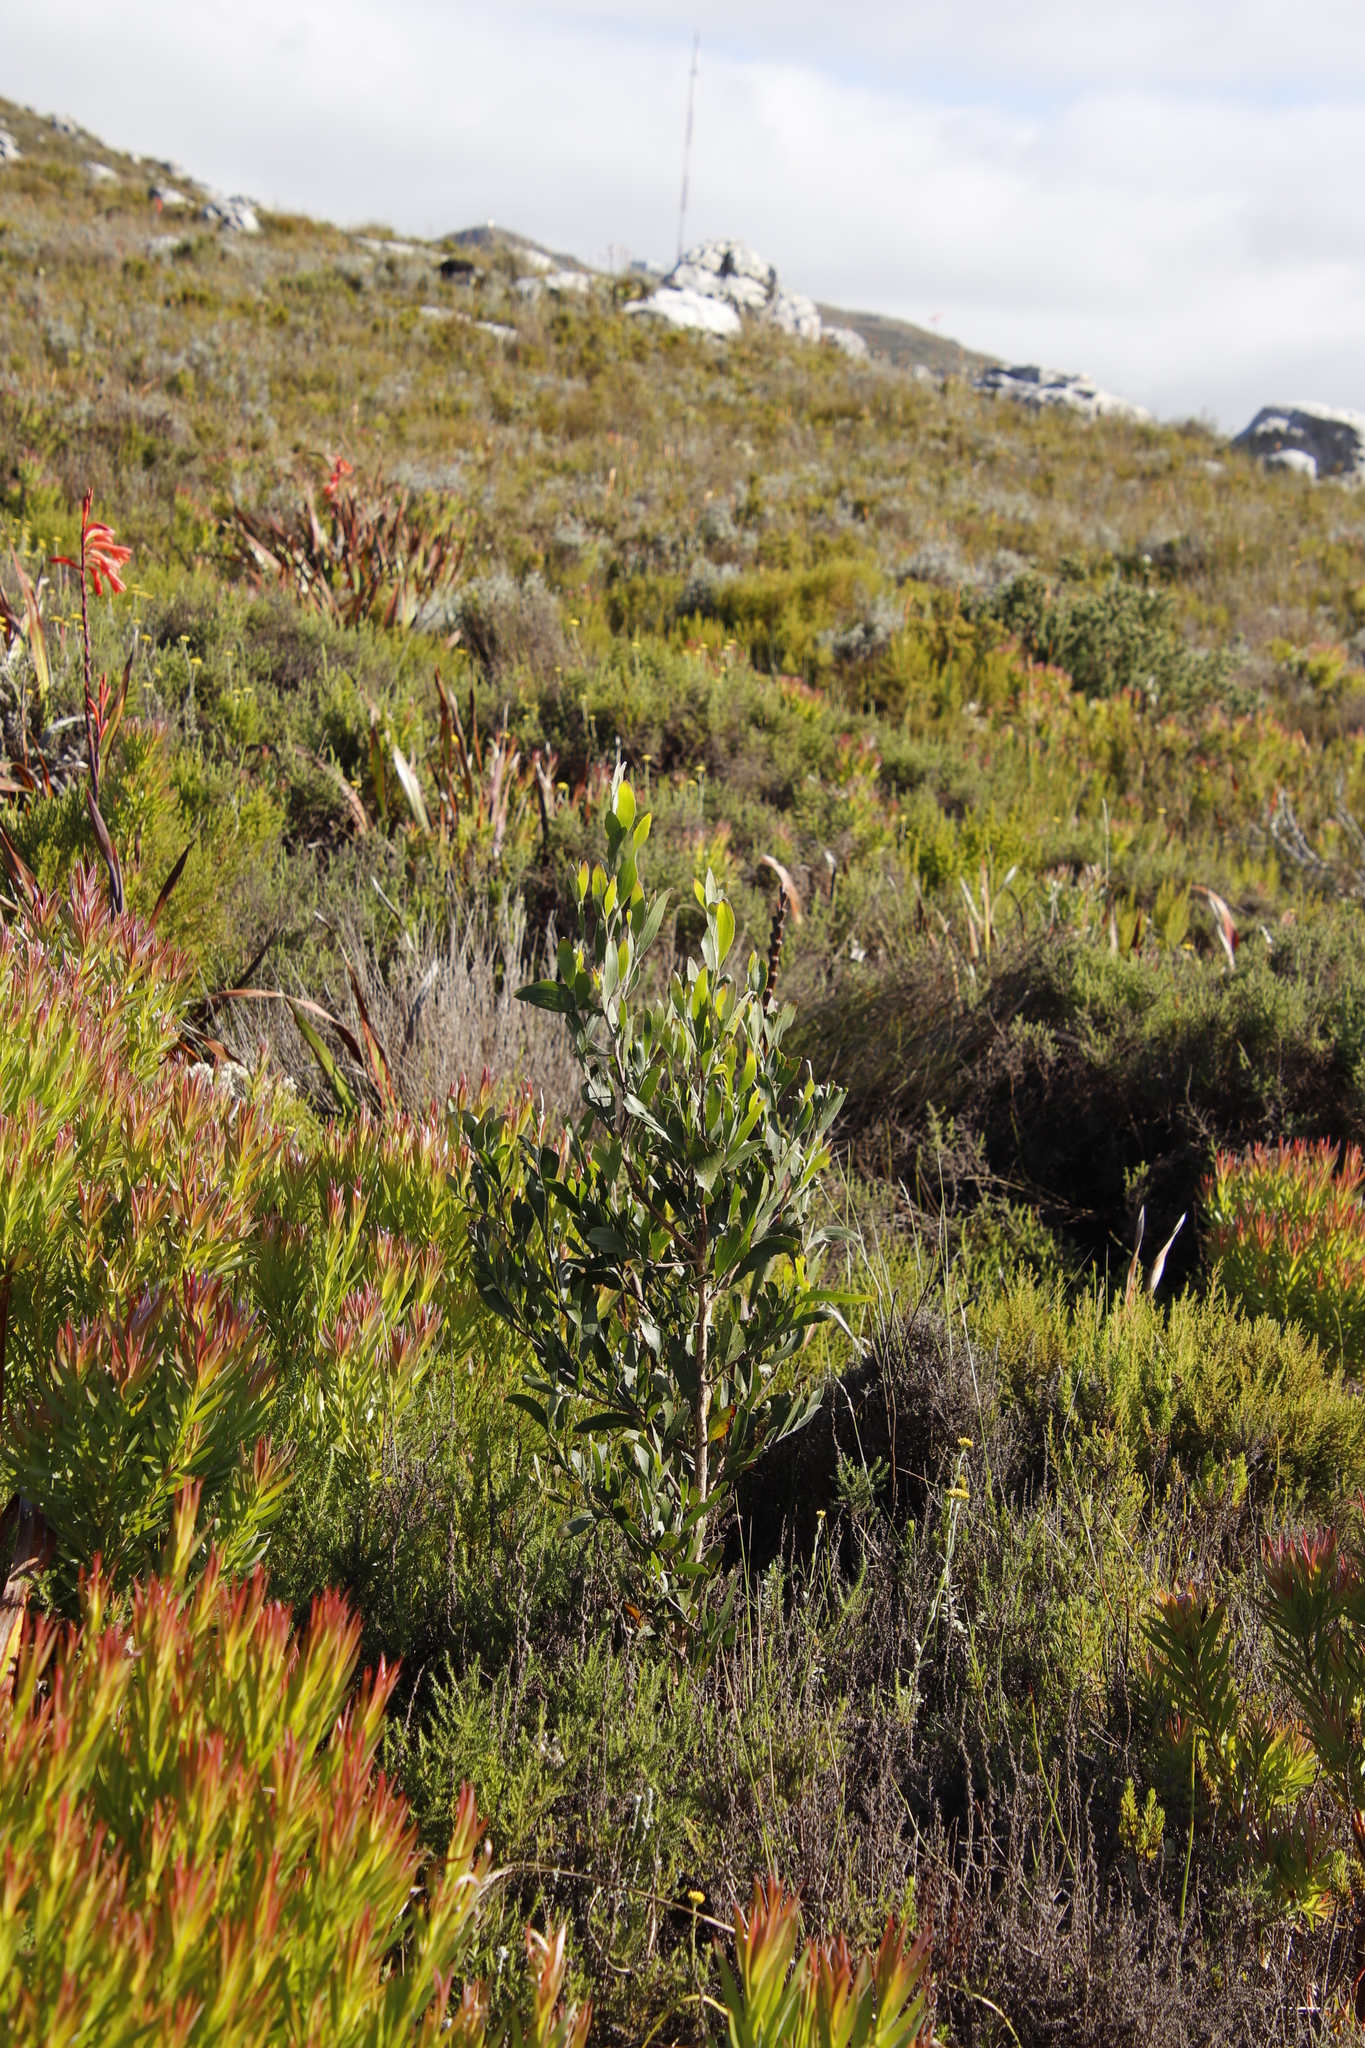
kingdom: Plantae
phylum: Tracheophyta
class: Magnoliopsida
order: Fabales
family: Fabaceae
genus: Acacia
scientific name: Acacia melanoxylon
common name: Blackwood
